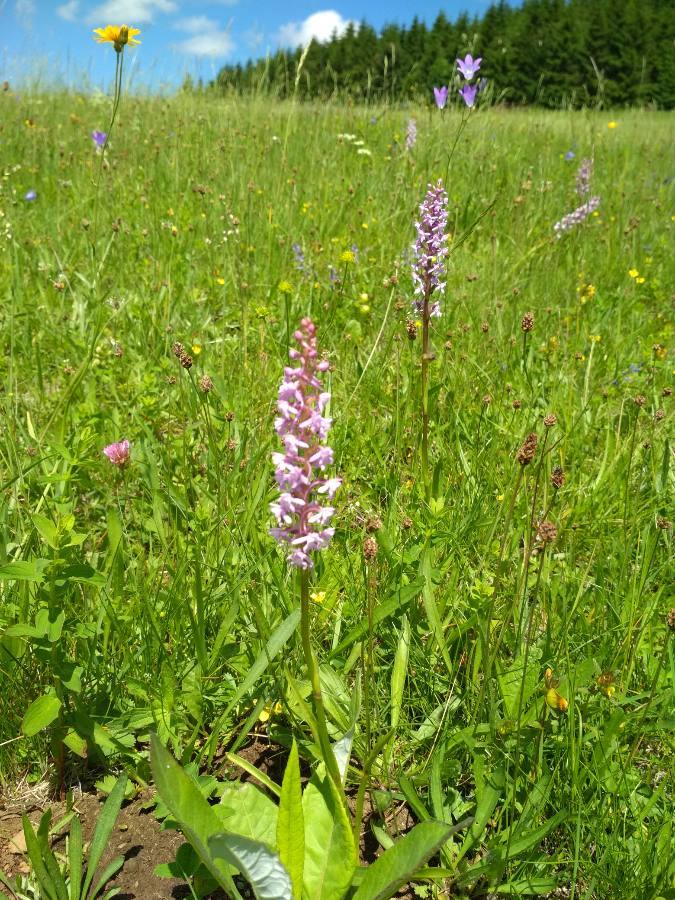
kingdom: Plantae
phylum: Tracheophyta
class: Liliopsida
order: Asparagales
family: Orchidaceae
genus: Gymnadenia
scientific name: Gymnadenia conopsea
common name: Fragrant orchid
